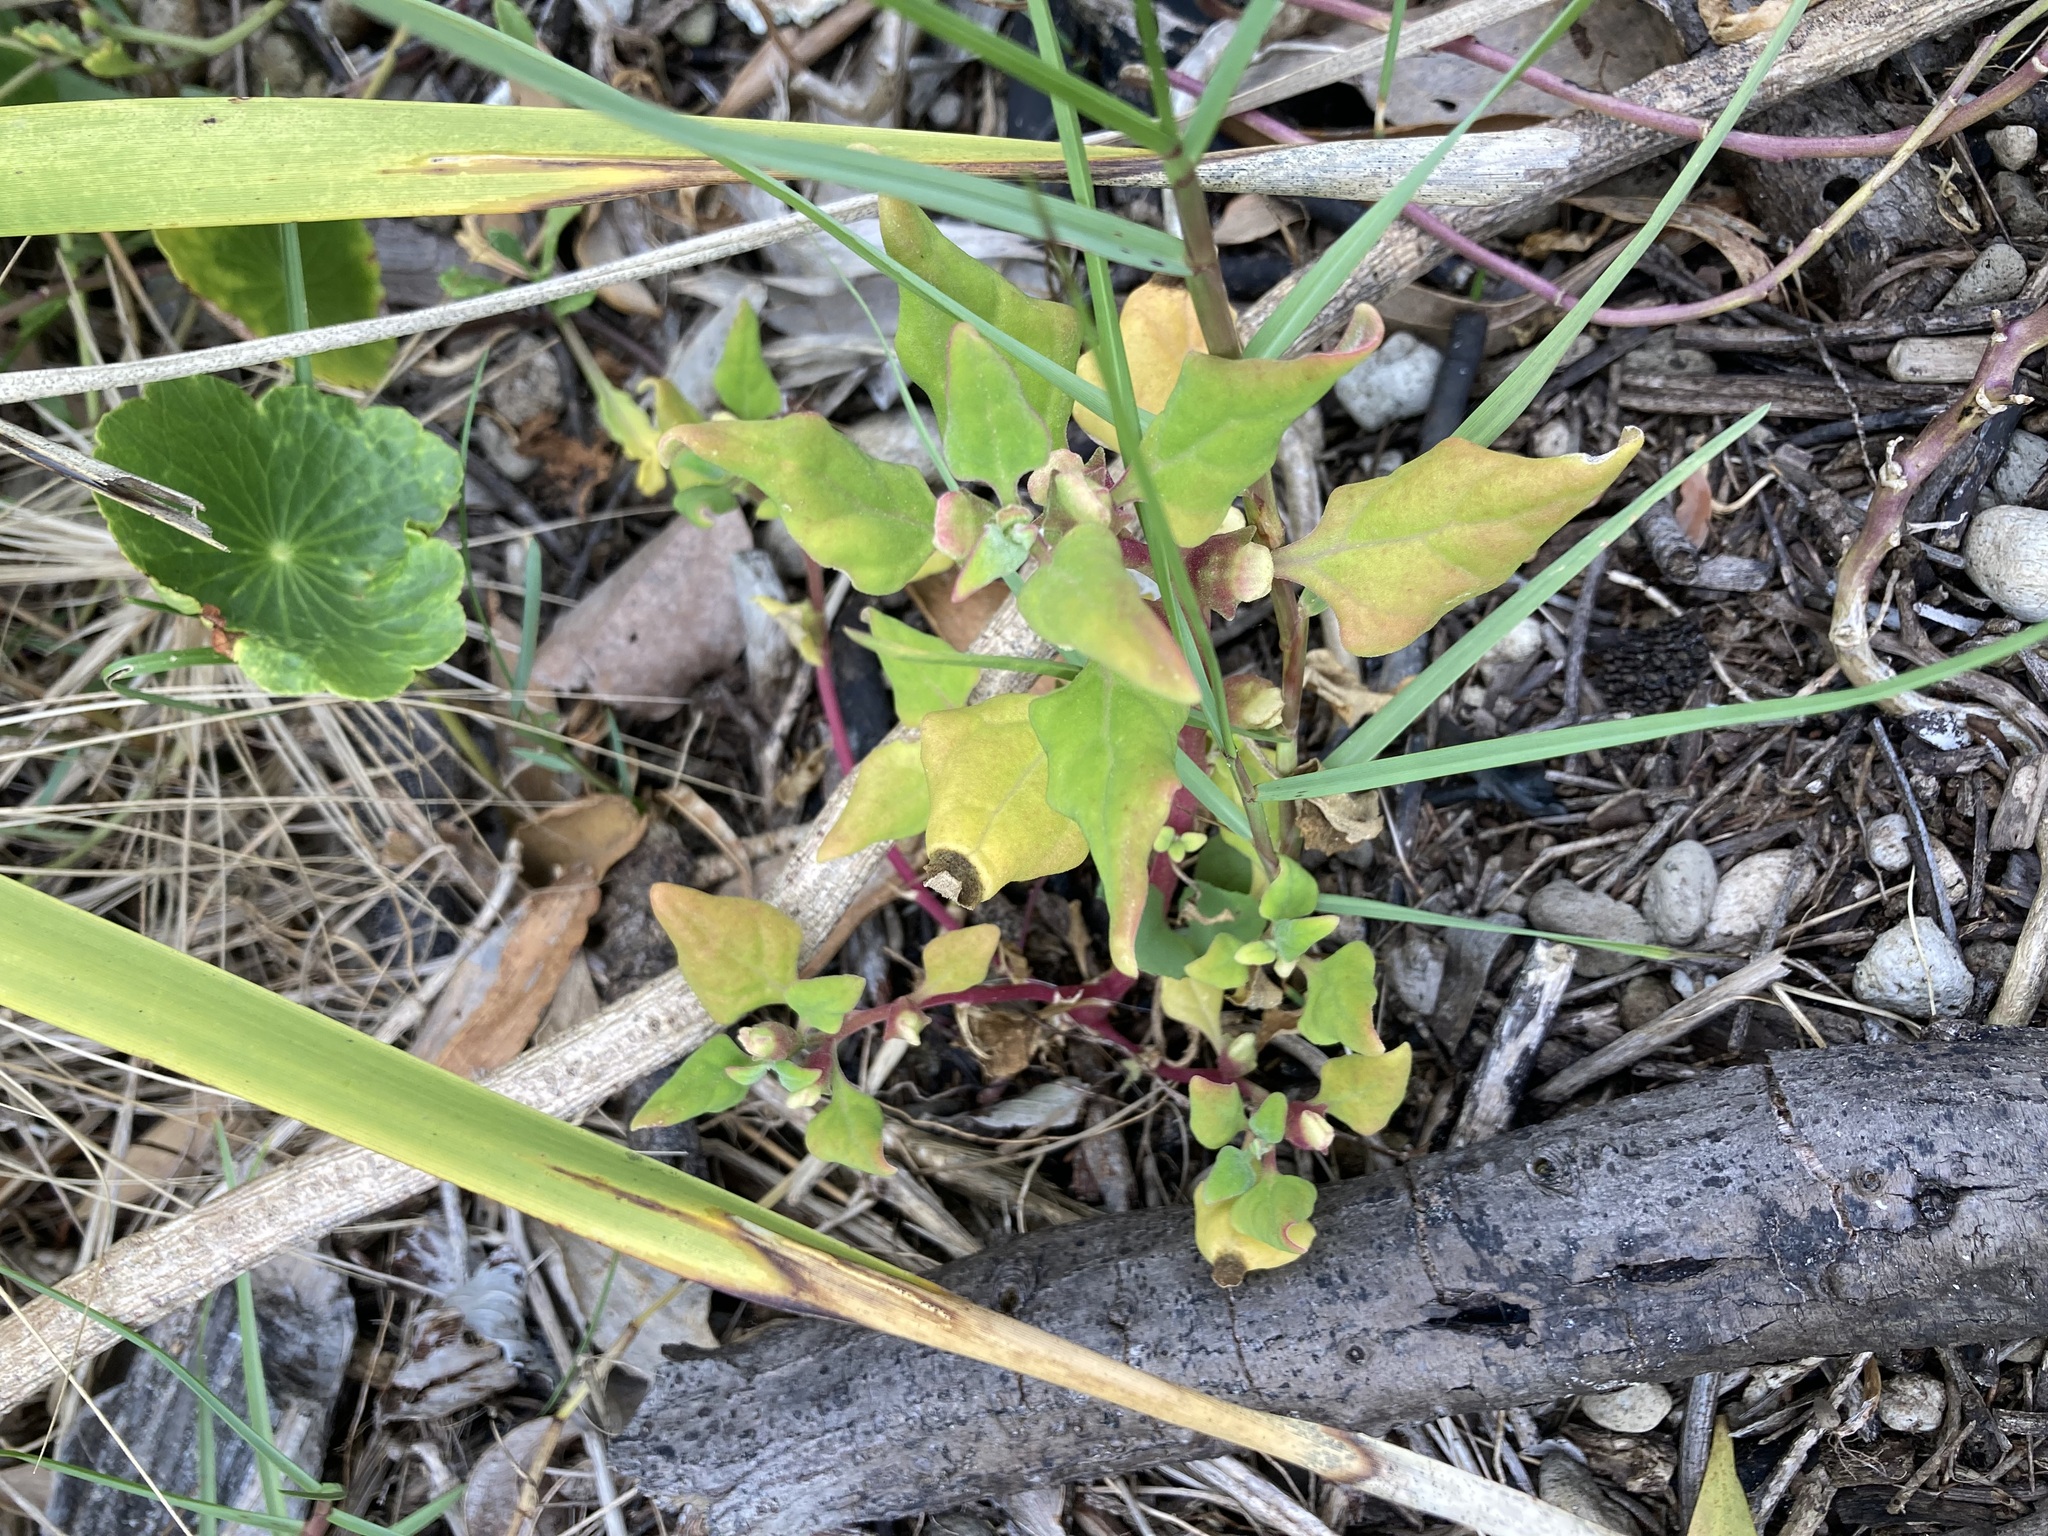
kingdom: Plantae
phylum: Tracheophyta
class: Magnoliopsida
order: Caryophyllales
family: Aizoaceae
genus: Tetragonia
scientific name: Tetragonia tetragonoides
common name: New zealand-spinach
